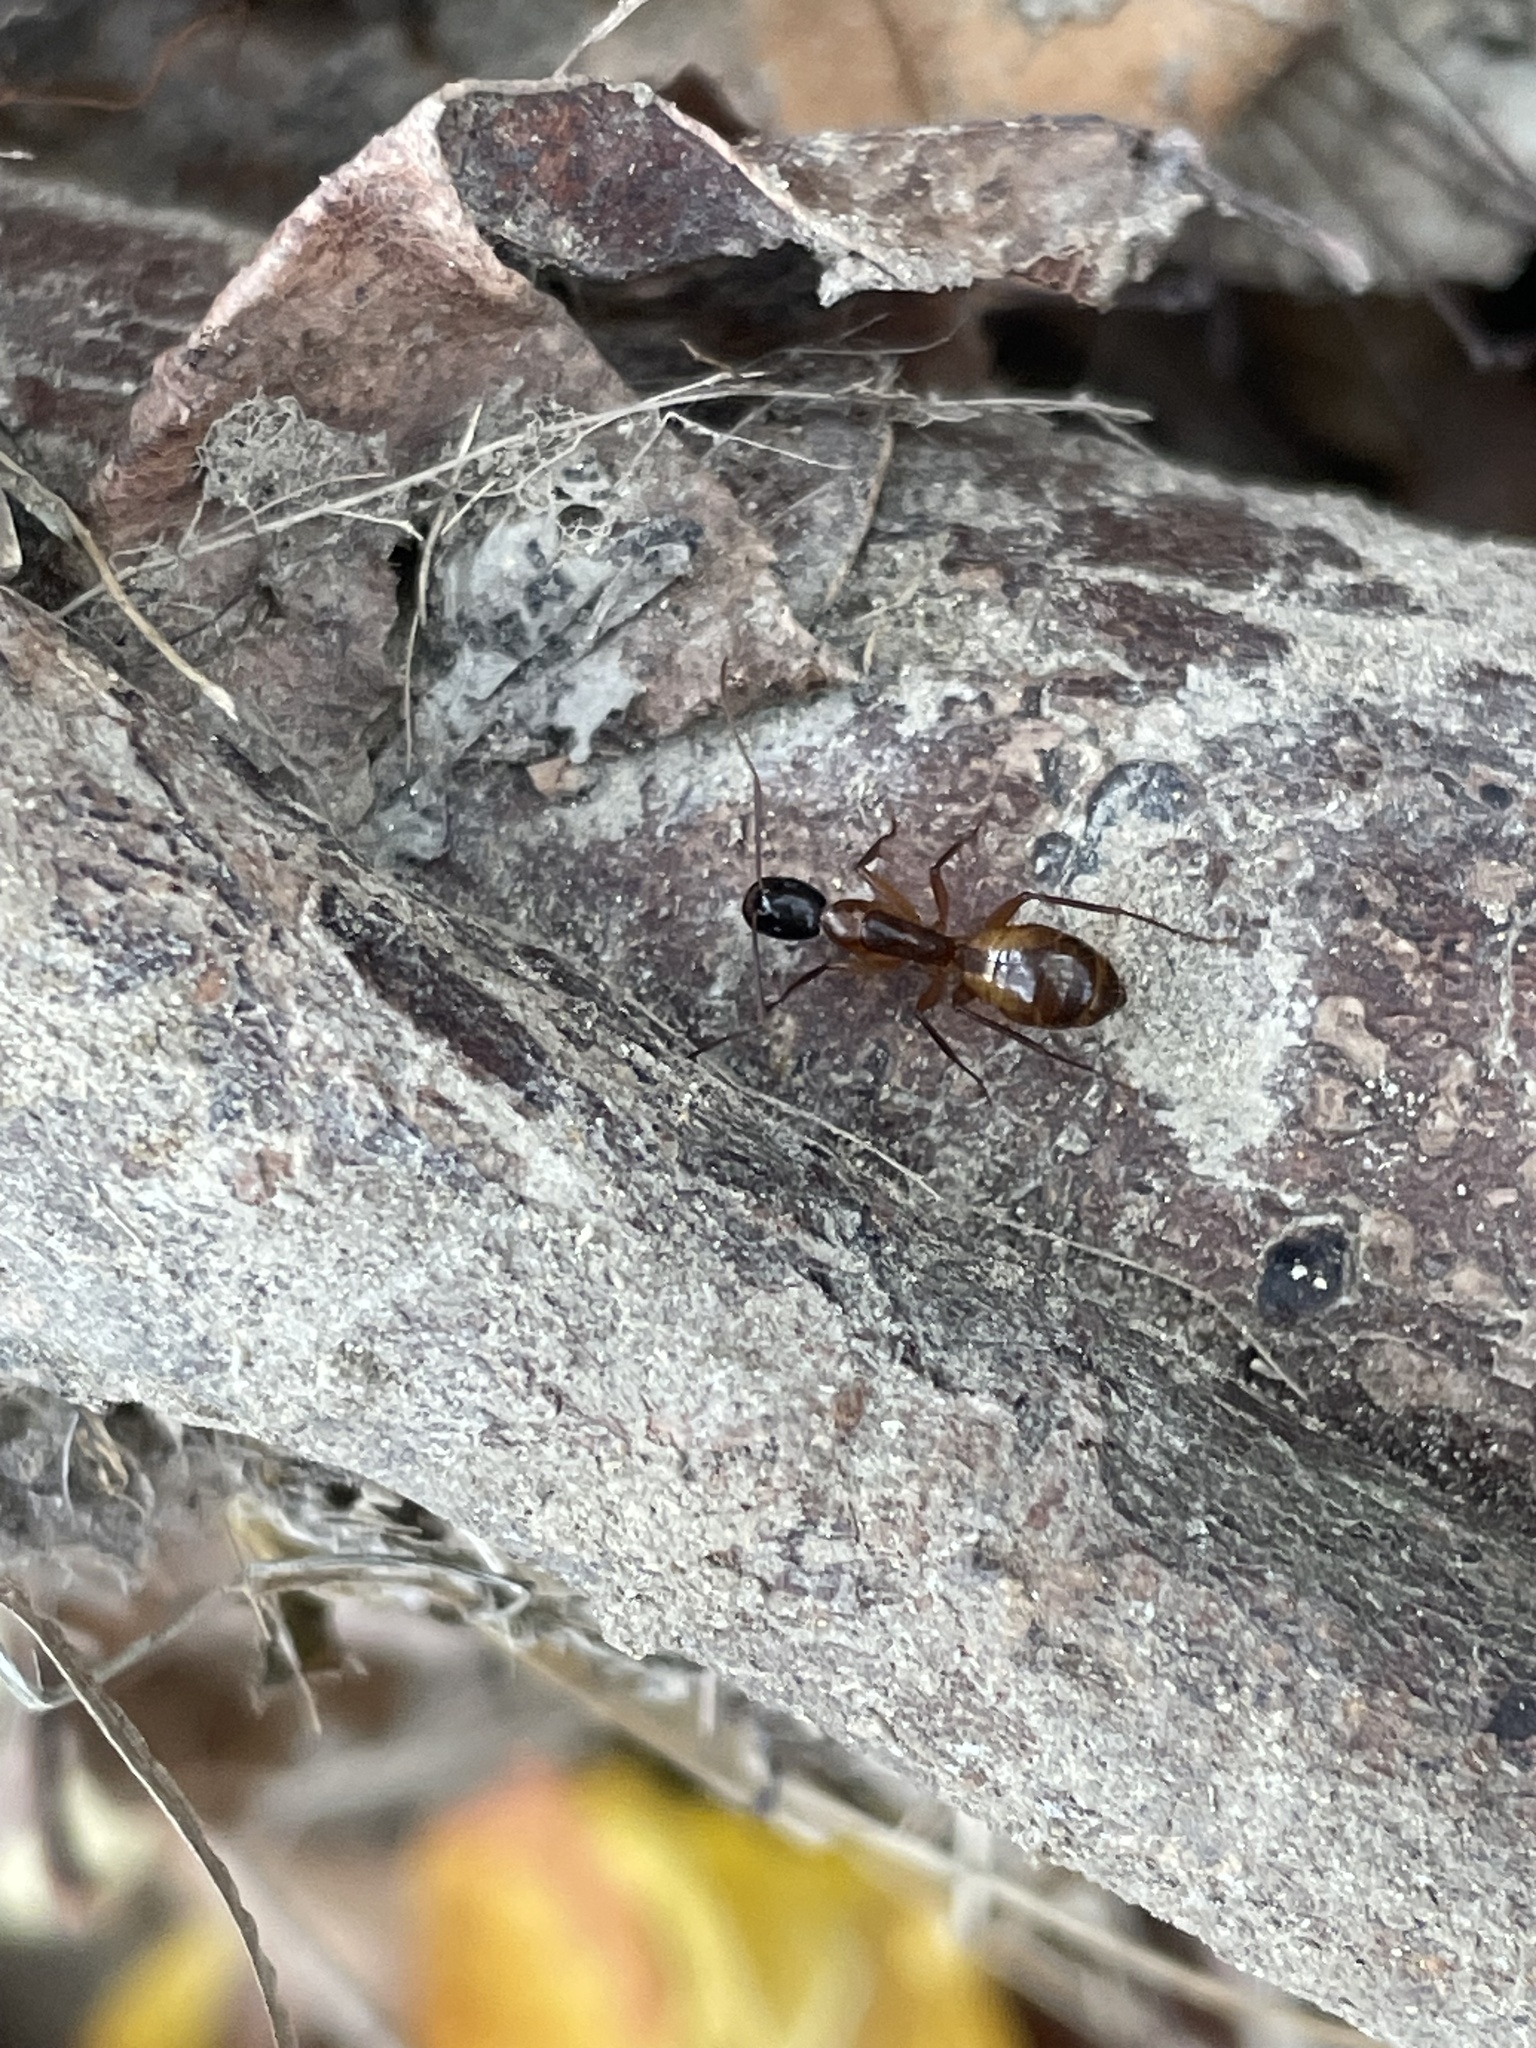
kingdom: Animalia
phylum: Arthropoda
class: Insecta
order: Hymenoptera
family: Formicidae
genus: Camponotus
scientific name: Camponotus americanus
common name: American carpenter ant
